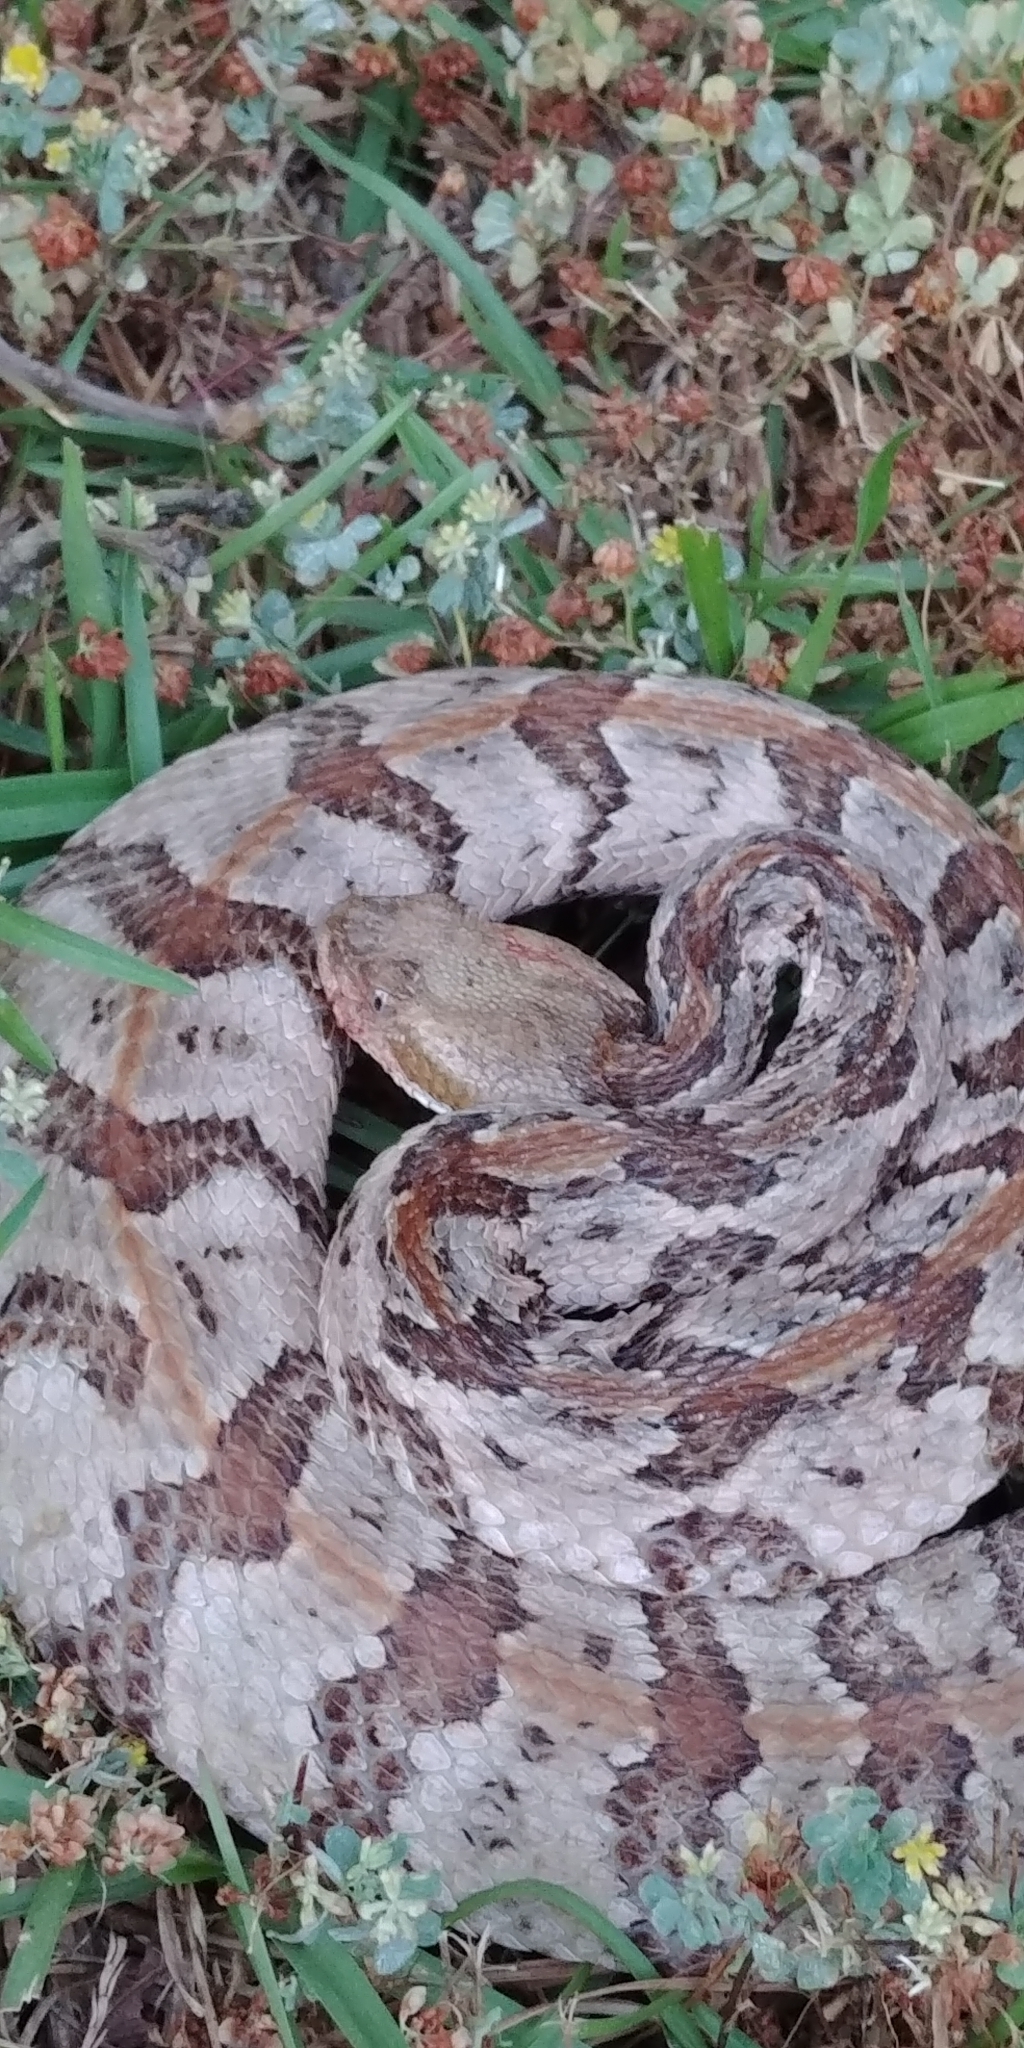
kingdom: Animalia
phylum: Chordata
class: Squamata
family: Viperidae
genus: Crotalus
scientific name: Crotalus horridus
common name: Timber rattlesnake
